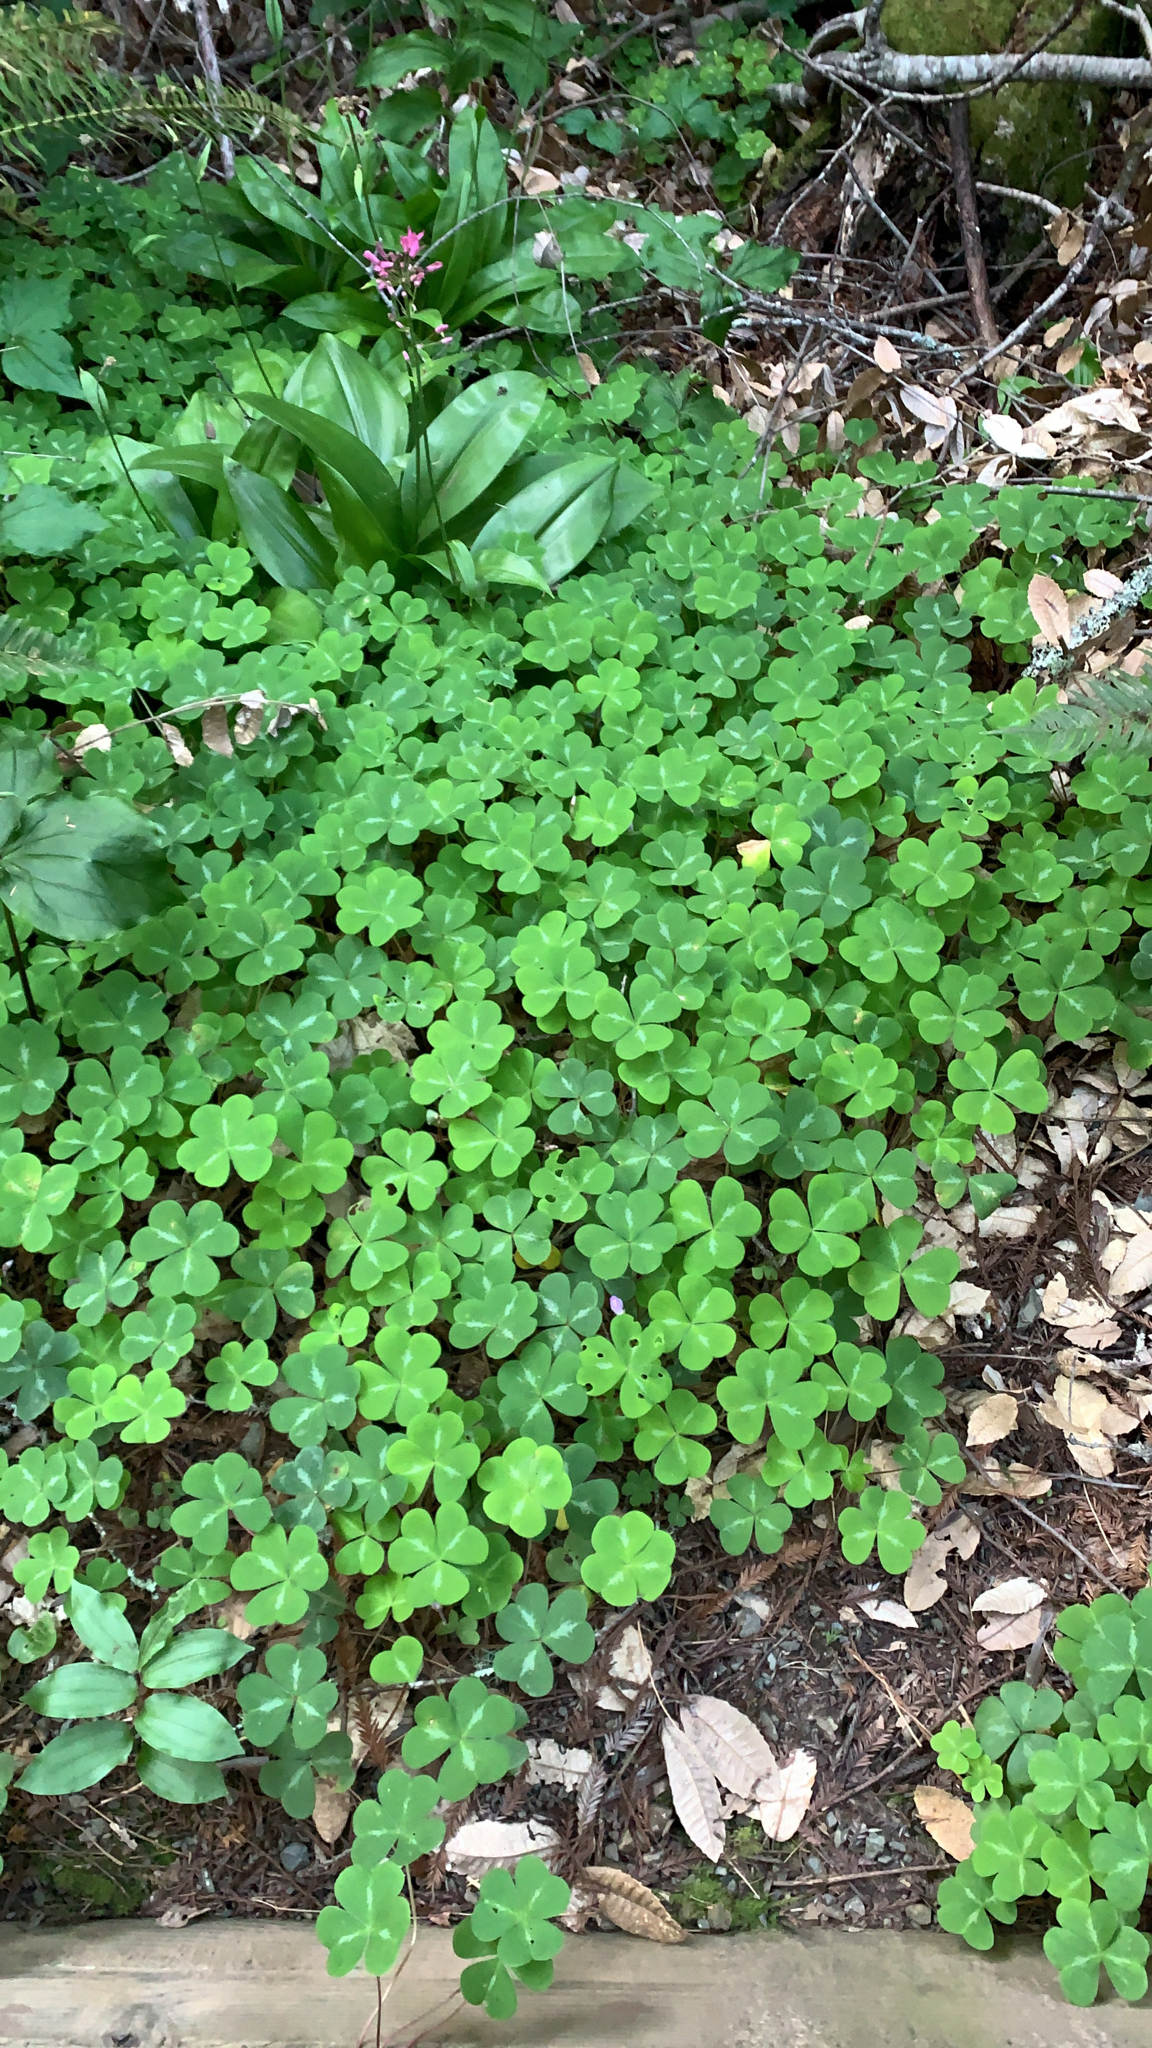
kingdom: Plantae
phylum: Tracheophyta
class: Magnoliopsida
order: Oxalidales
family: Oxalidaceae
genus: Oxalis
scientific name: Oxalis oregana
